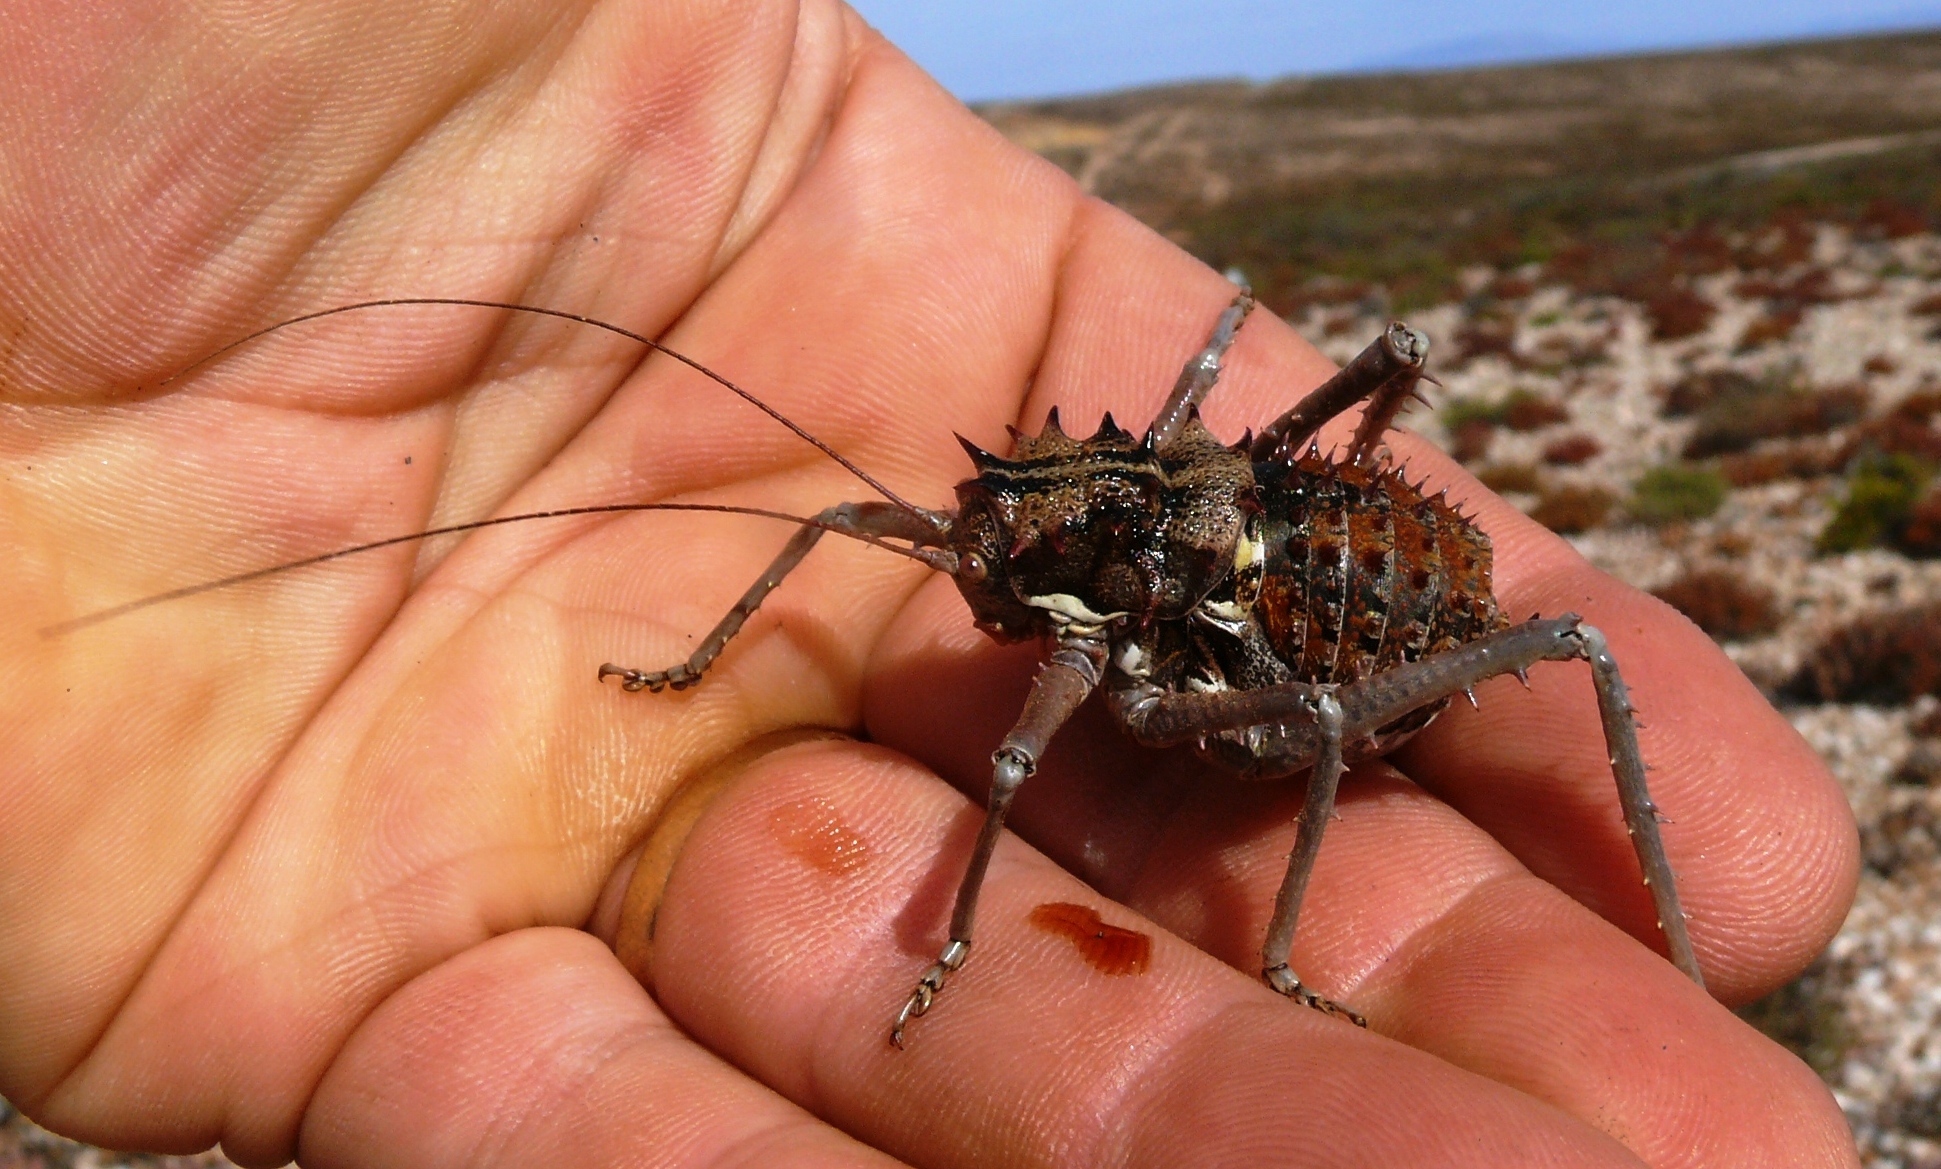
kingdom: Animalia
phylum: Arthropoda
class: Insecta
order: Orthoptera
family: Tettigoniidae
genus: Hemihetrodes
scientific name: Hemihetrodes bachmanni
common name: Bachmann's armoured katydid
